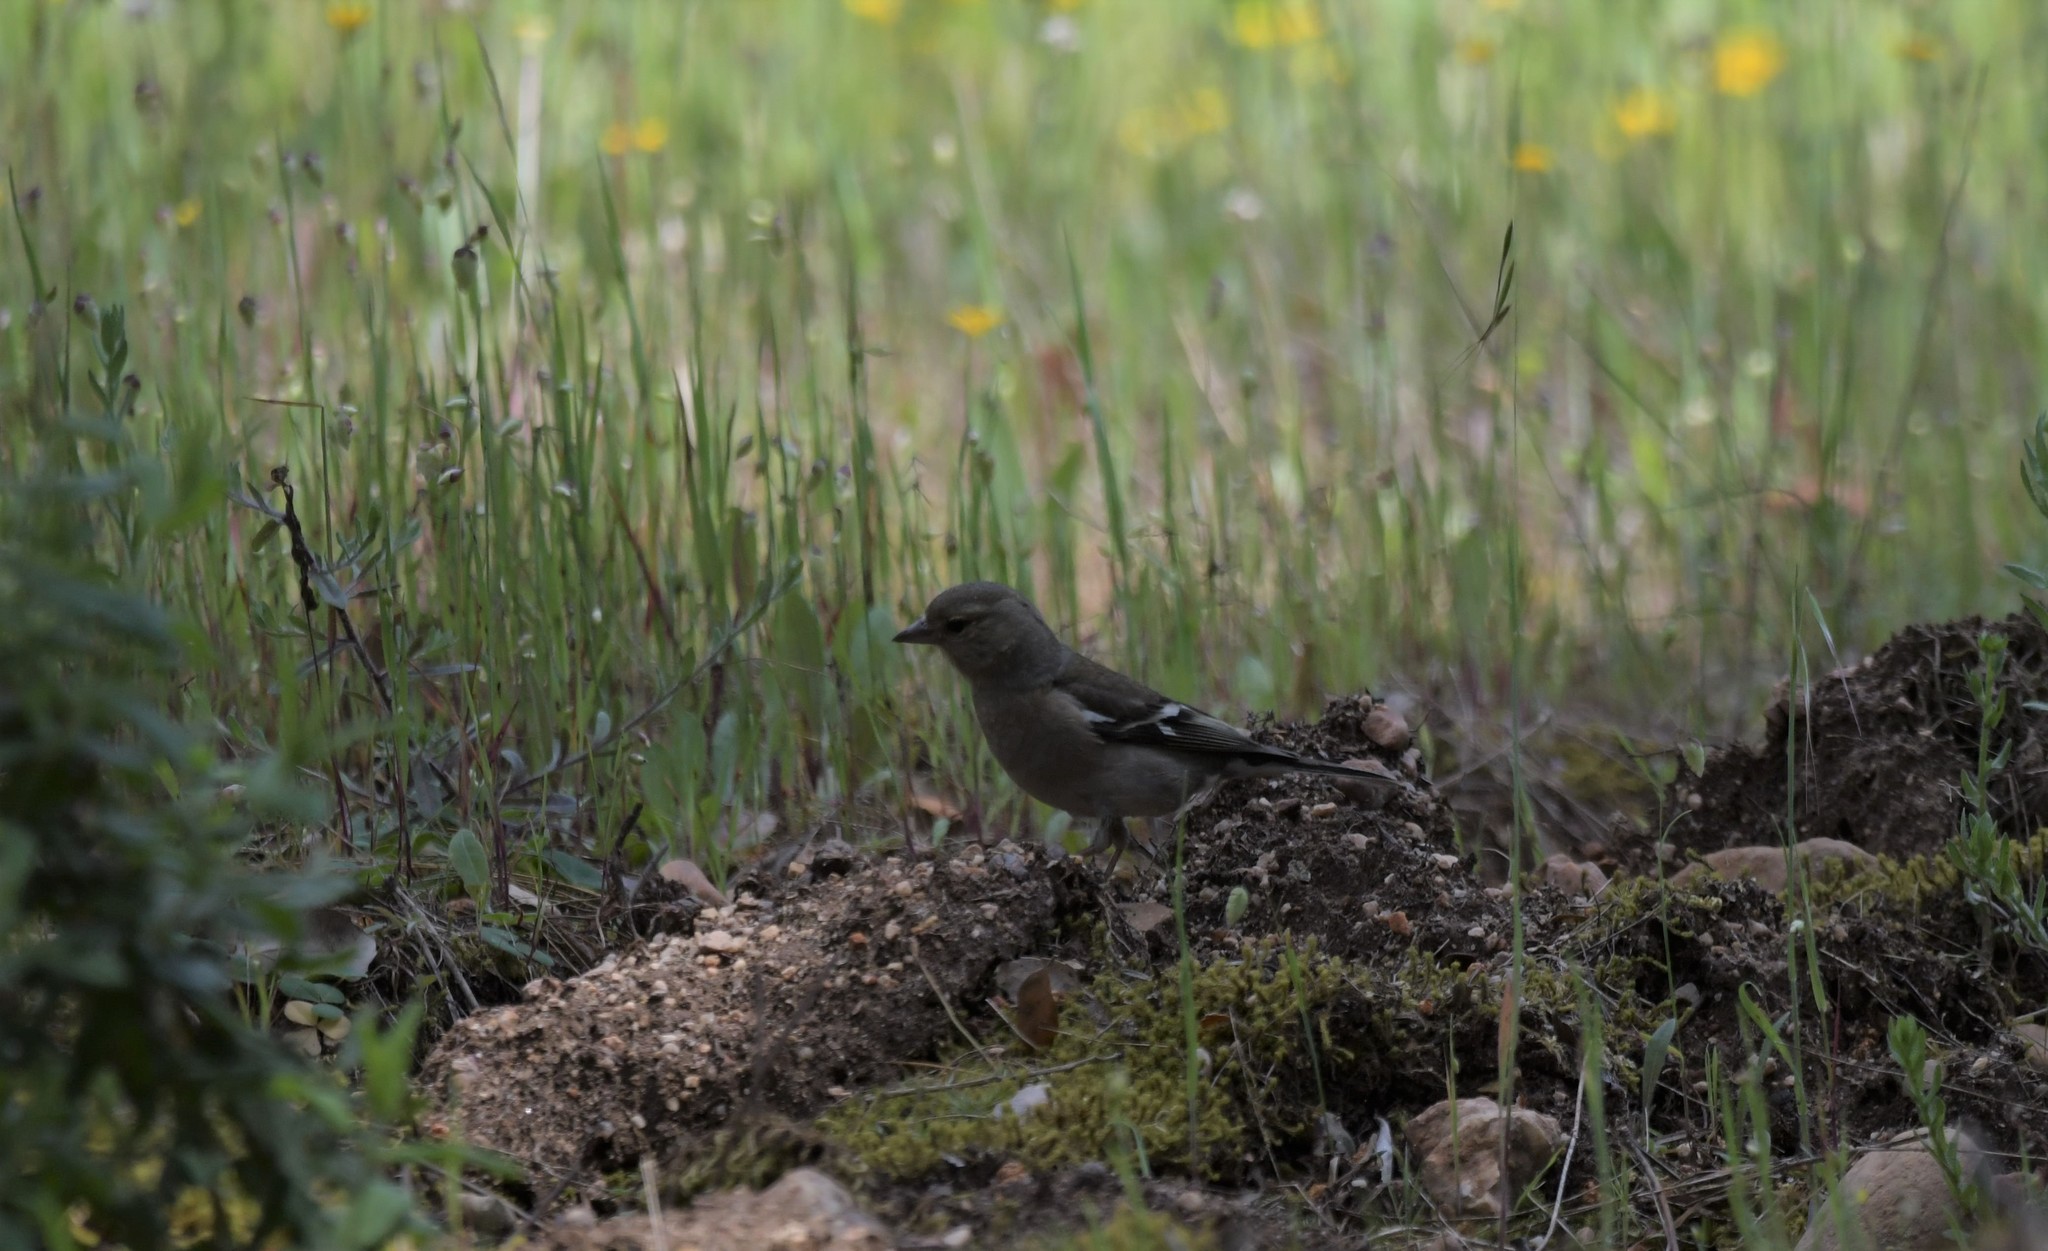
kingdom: Animalia
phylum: Chordata
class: Aves
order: Passeriformes
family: Fringillidae
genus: Fringilla
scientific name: Fringilla coelebs
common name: Common chaffinch
